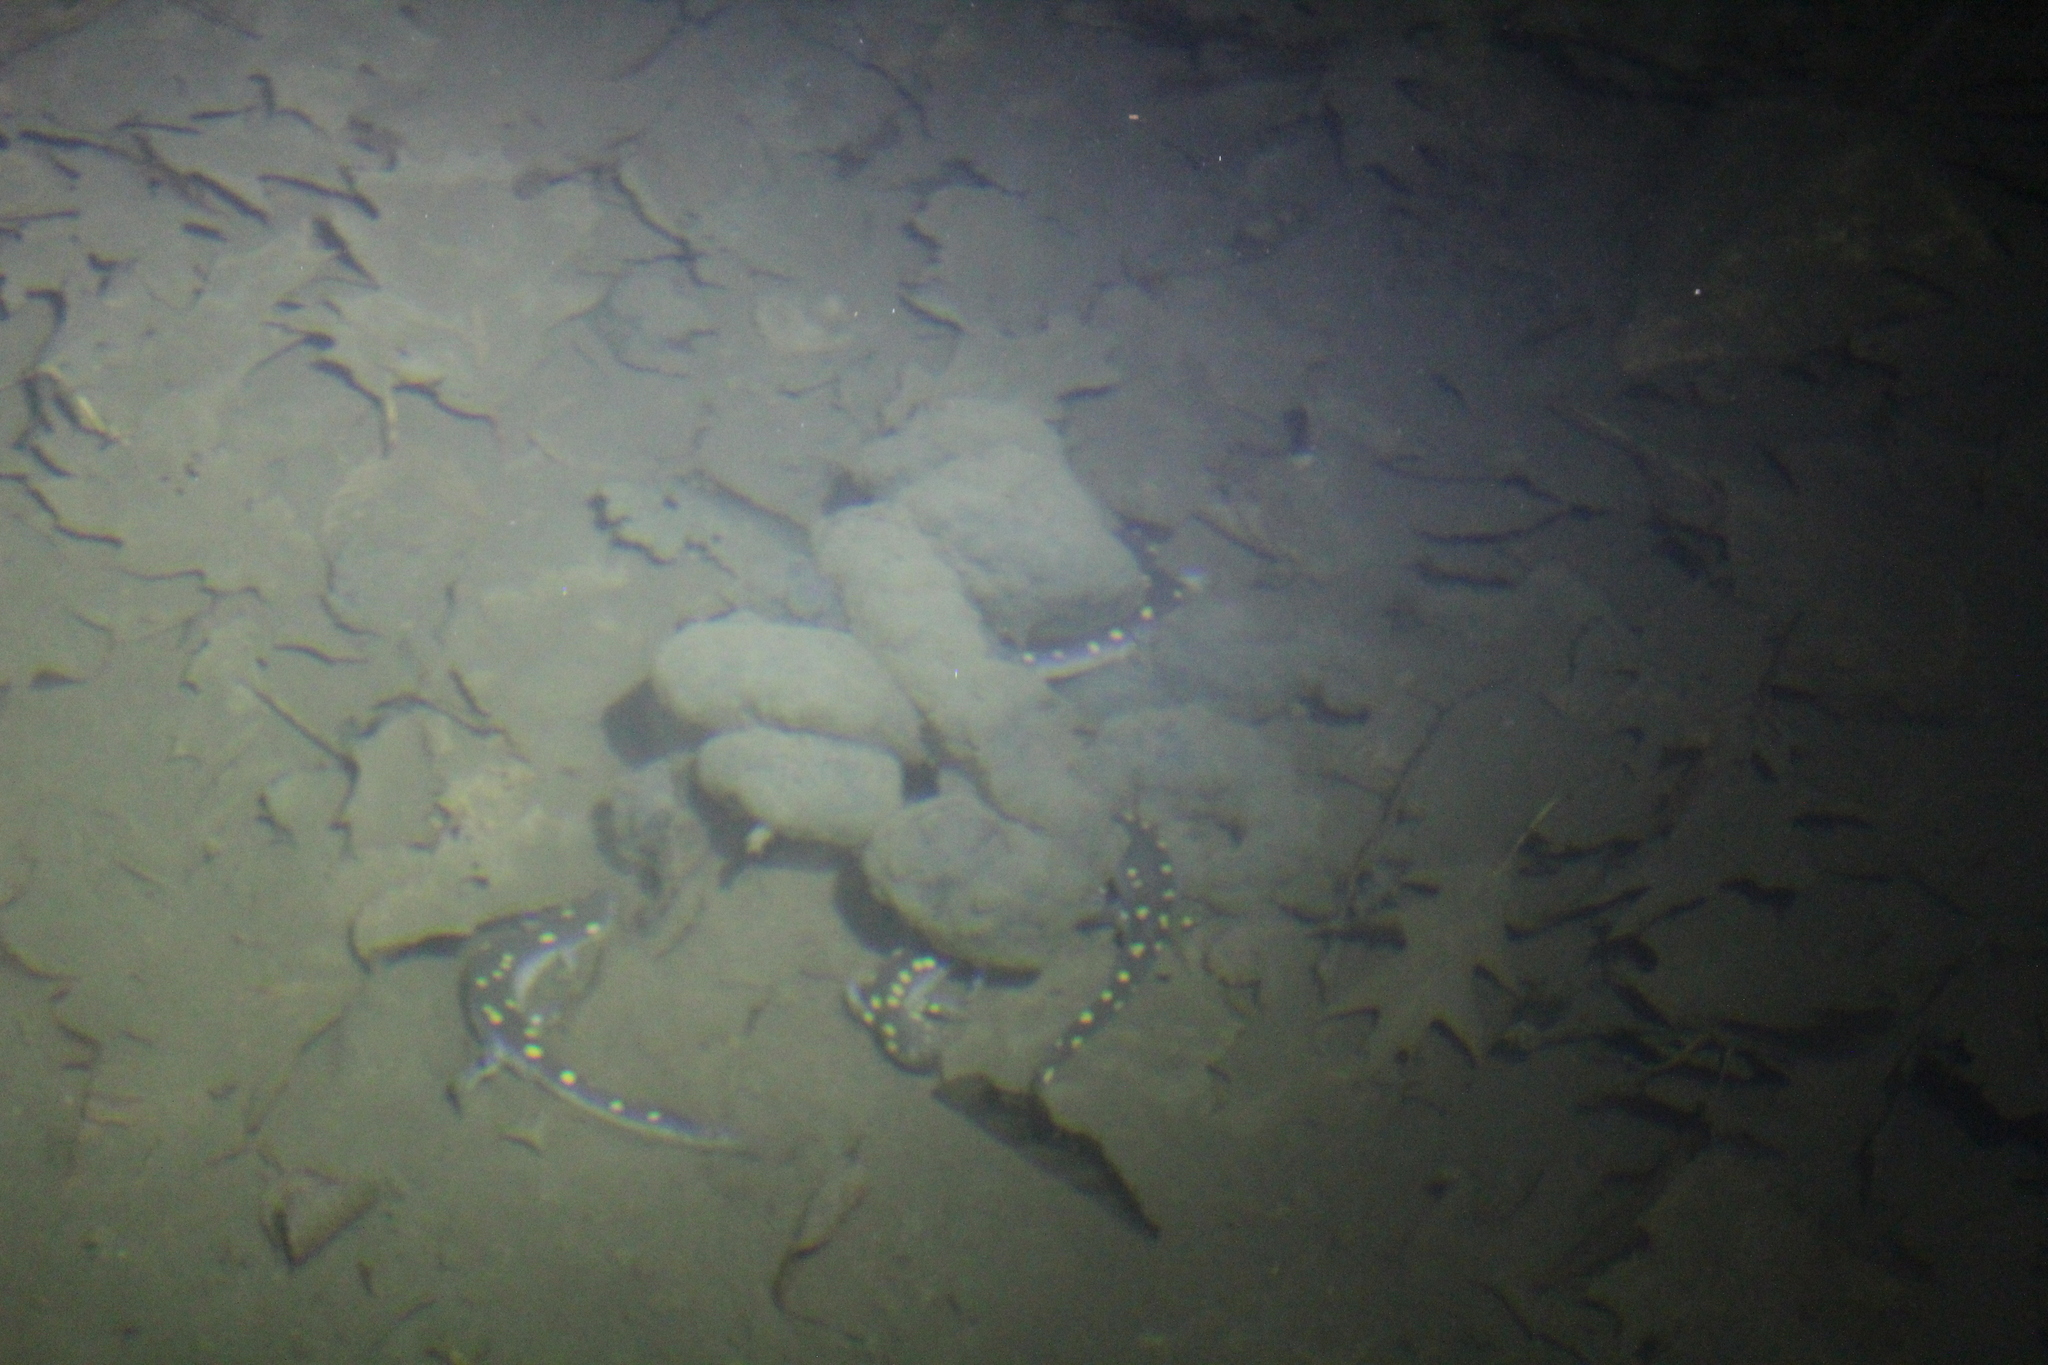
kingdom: Animalia
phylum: Chordata
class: Amphibia
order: Caudata
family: Ambystomatidae
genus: Ambystoma
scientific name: Ambystoma maculatum
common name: Spotted salamander
